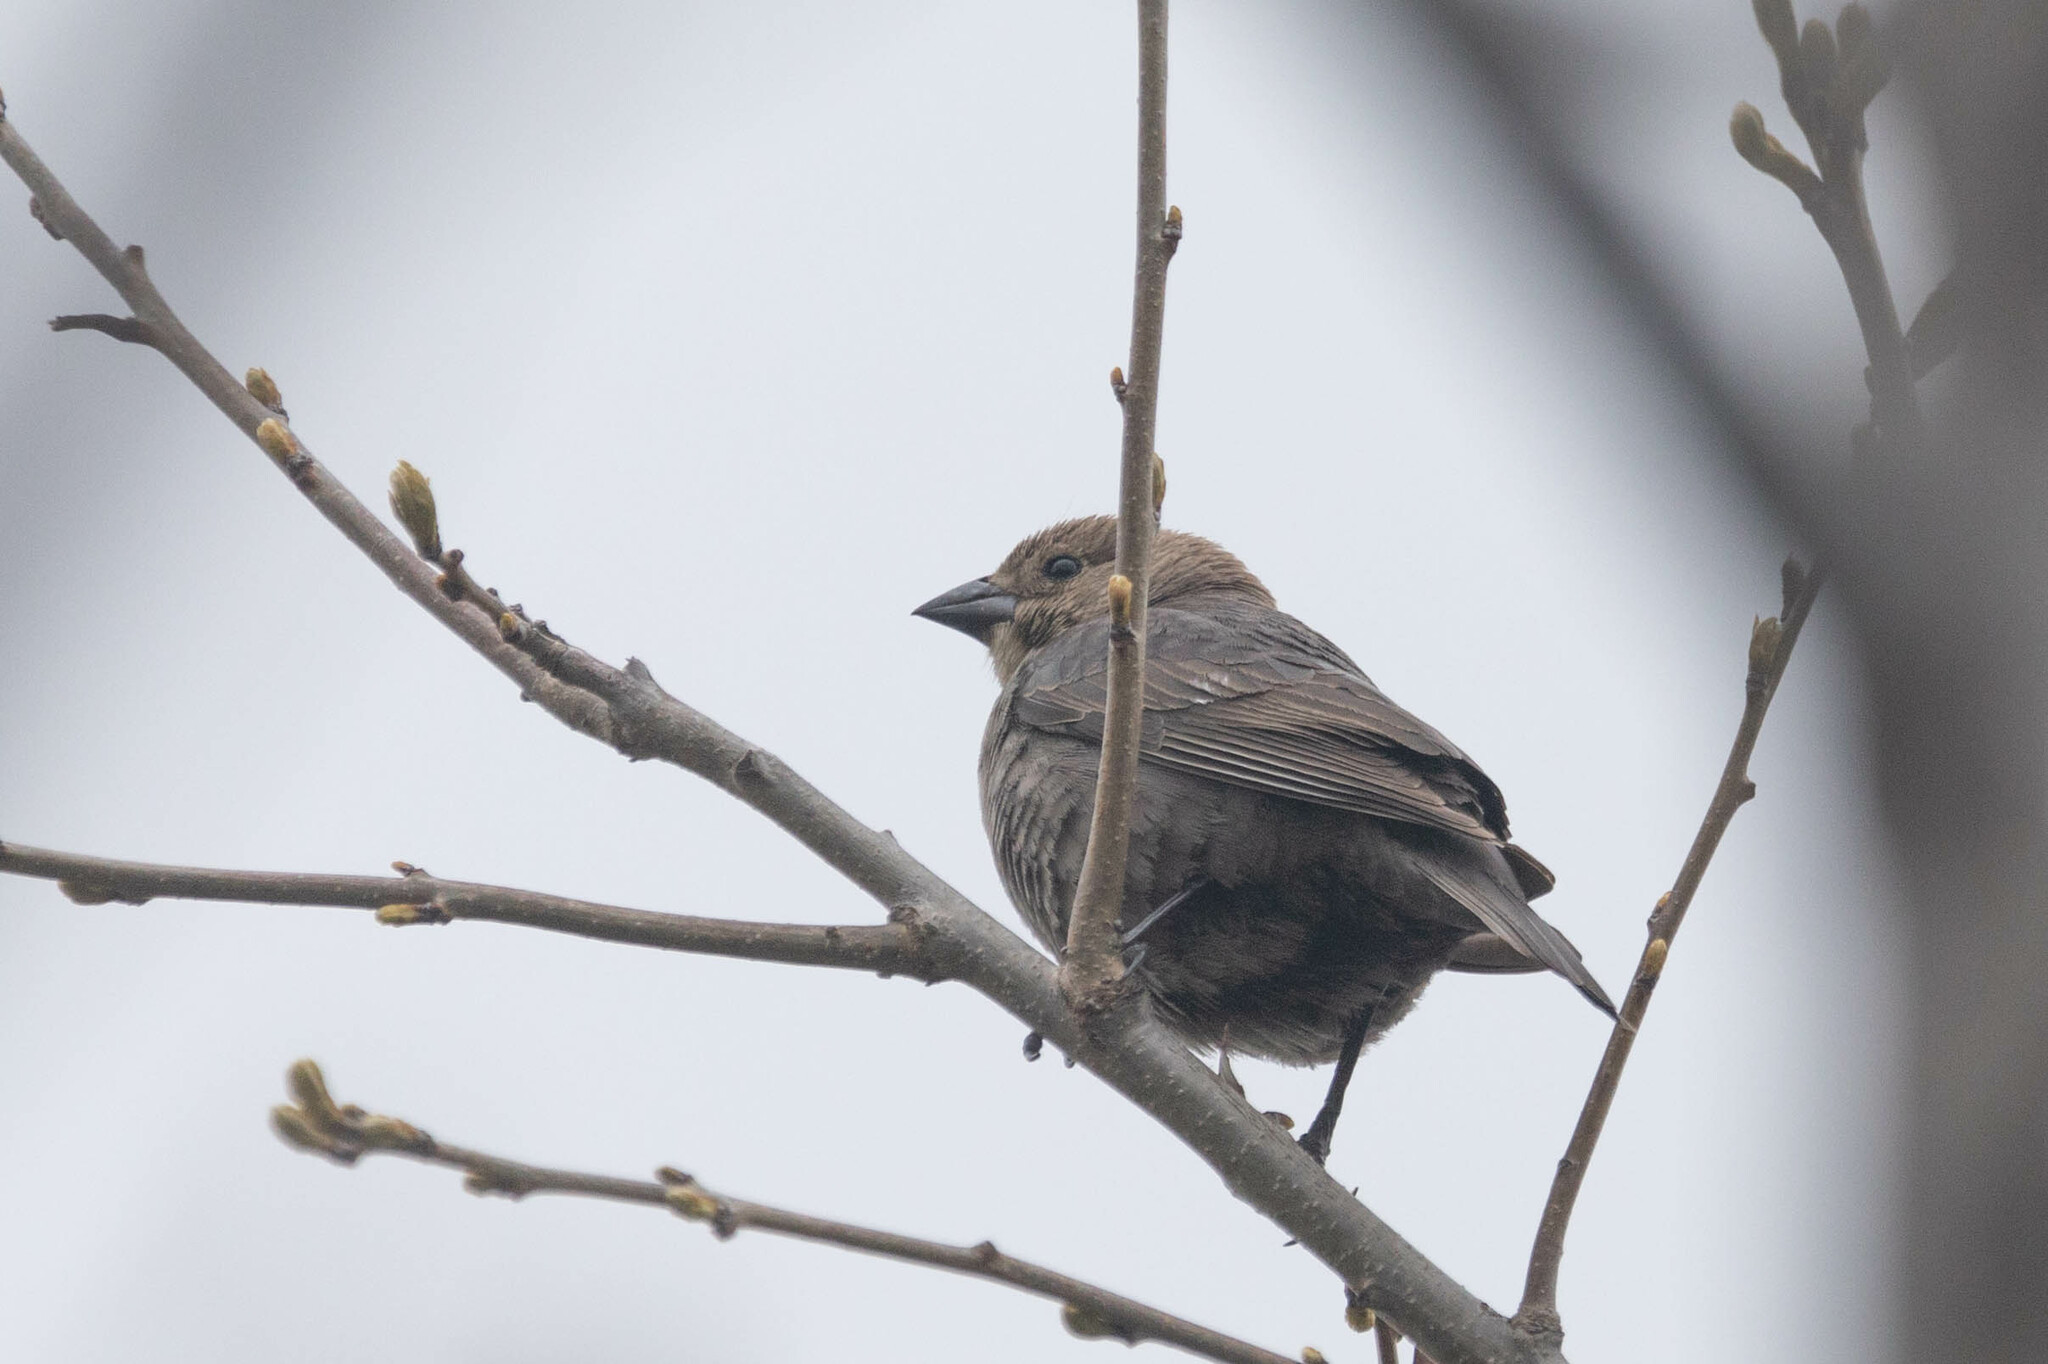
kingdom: Animalia
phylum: Chordata
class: Aves
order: Passeriformes
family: Icteridae
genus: Molothrus
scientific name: Molothrus ater
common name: Brown-headed cowbird
